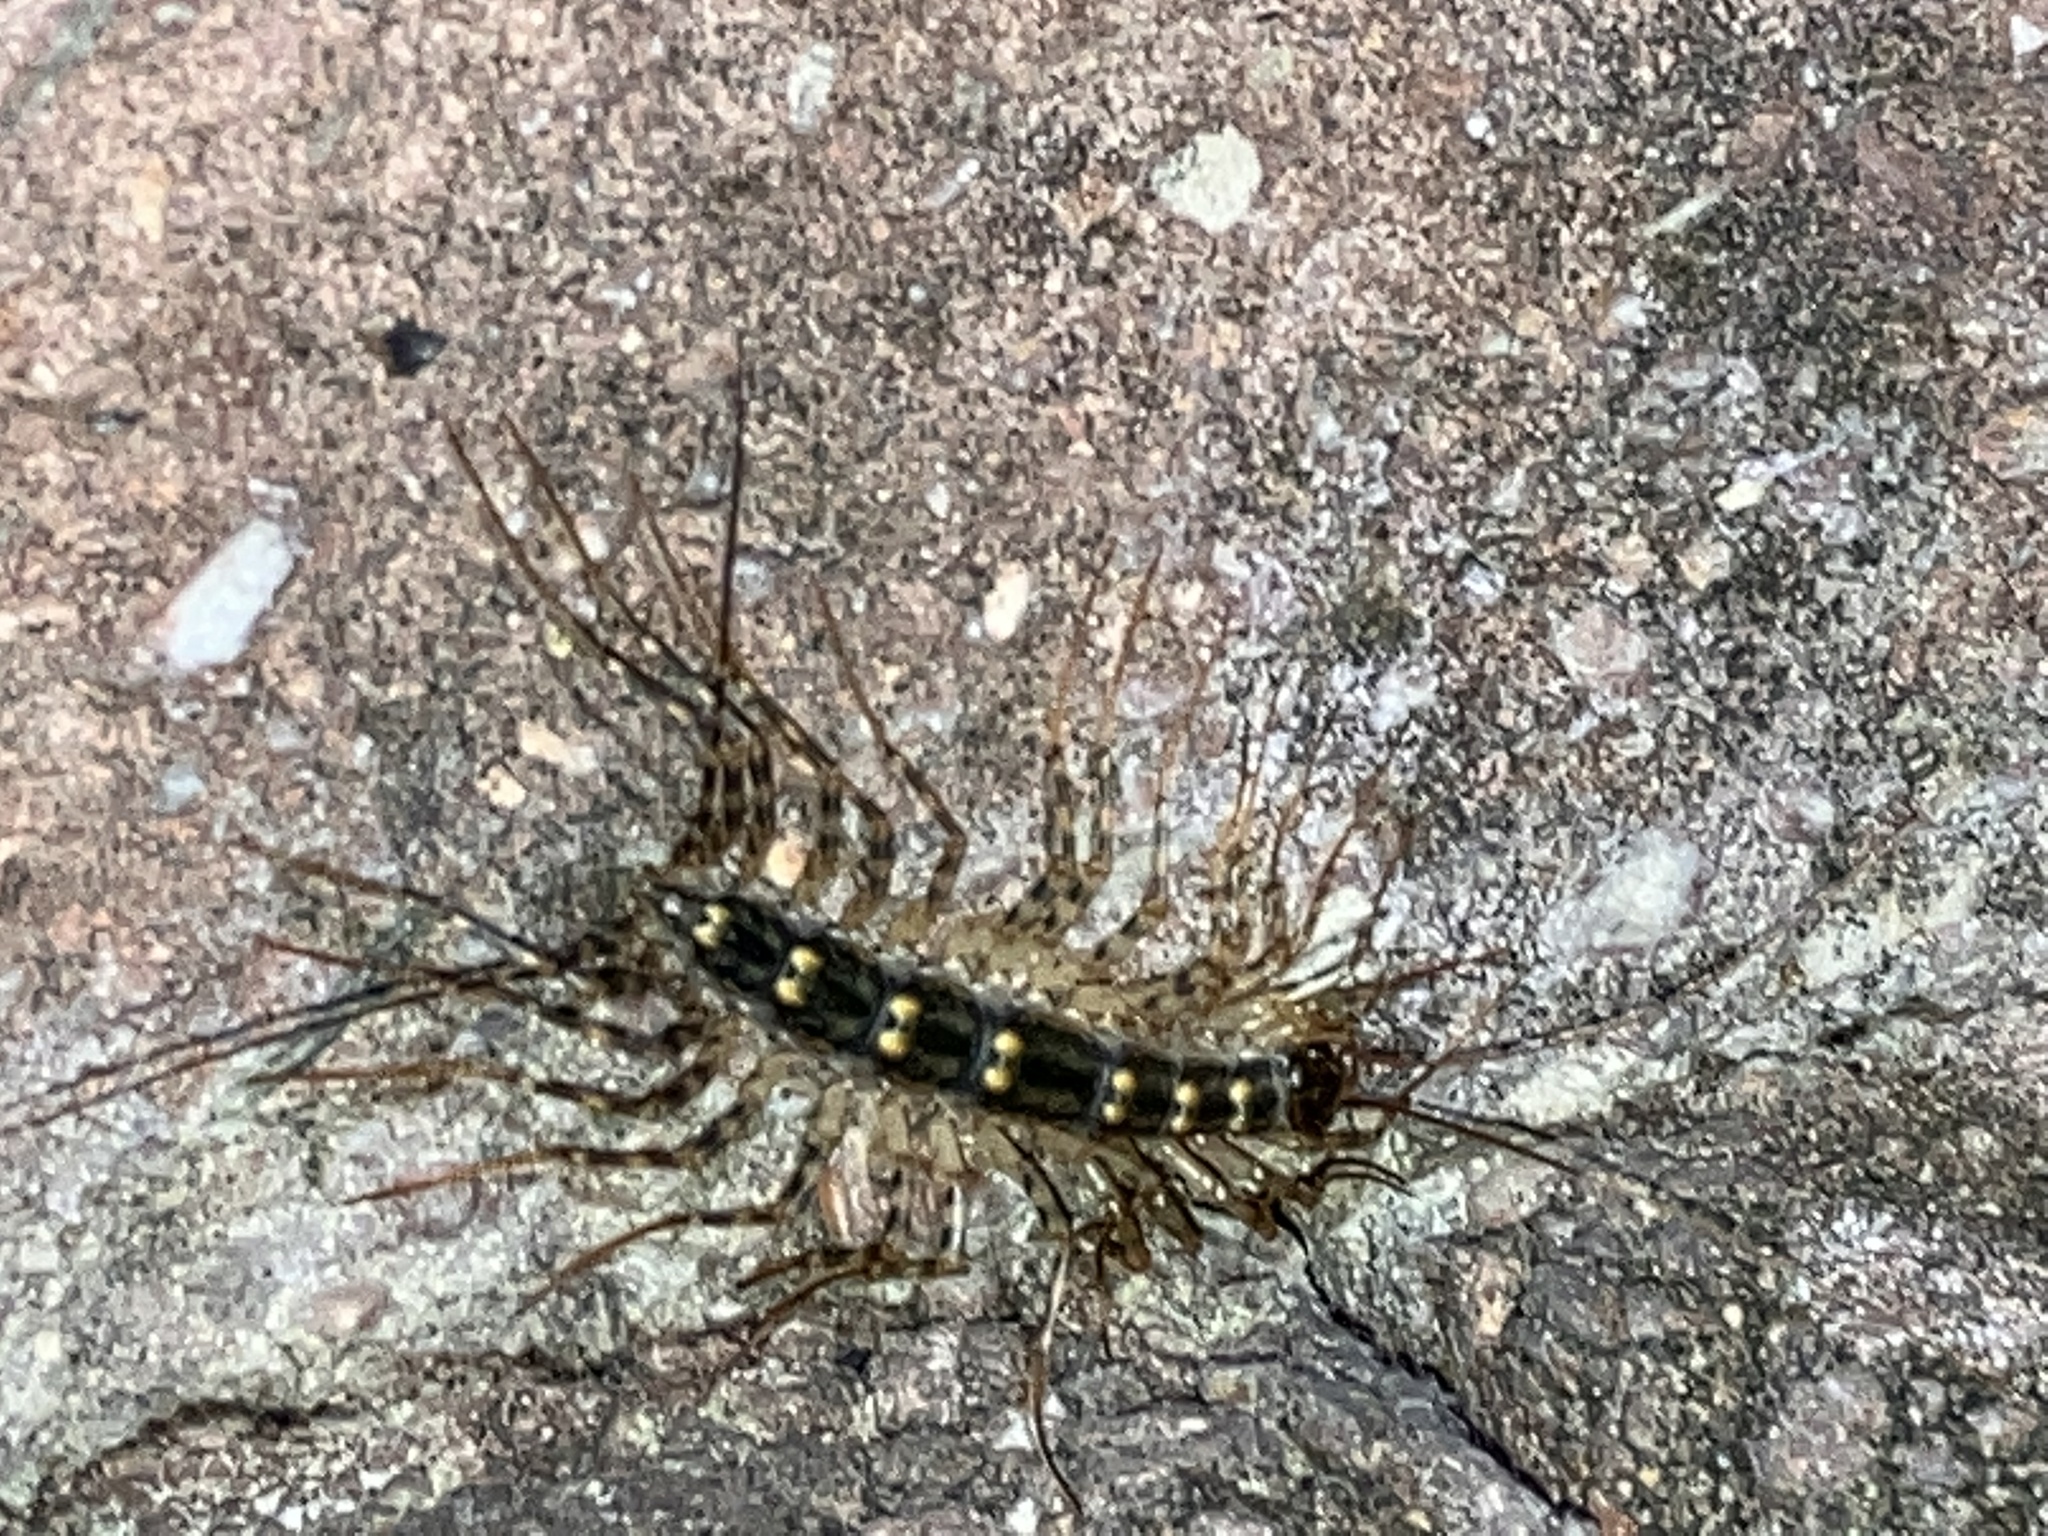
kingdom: Animalia
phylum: Arthropoda
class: Chilopoda
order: Scutigeromorpha
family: Scutigeridae
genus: Thereuonema
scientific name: Thereuonema tuberculata
